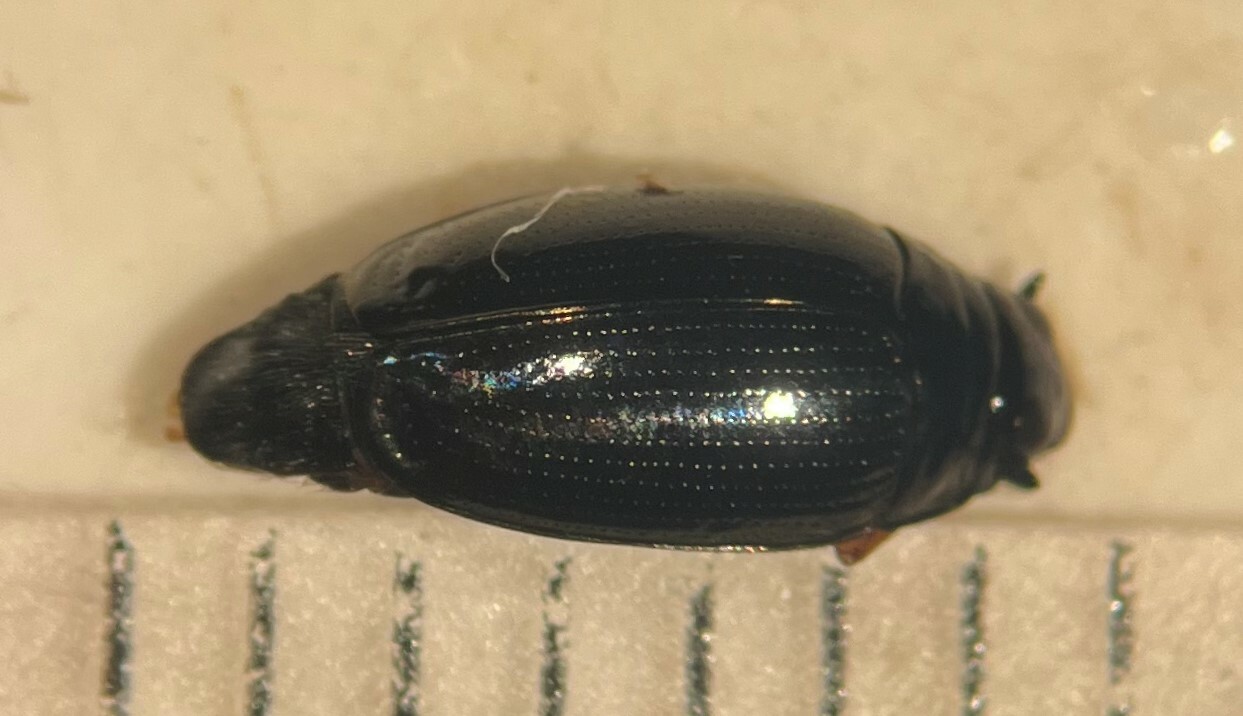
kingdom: Animalia
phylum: Arthropoda
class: Insecta
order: Coleoptera
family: Gyrinidae
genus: Gyrinus
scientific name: Gyrinus ventralis
